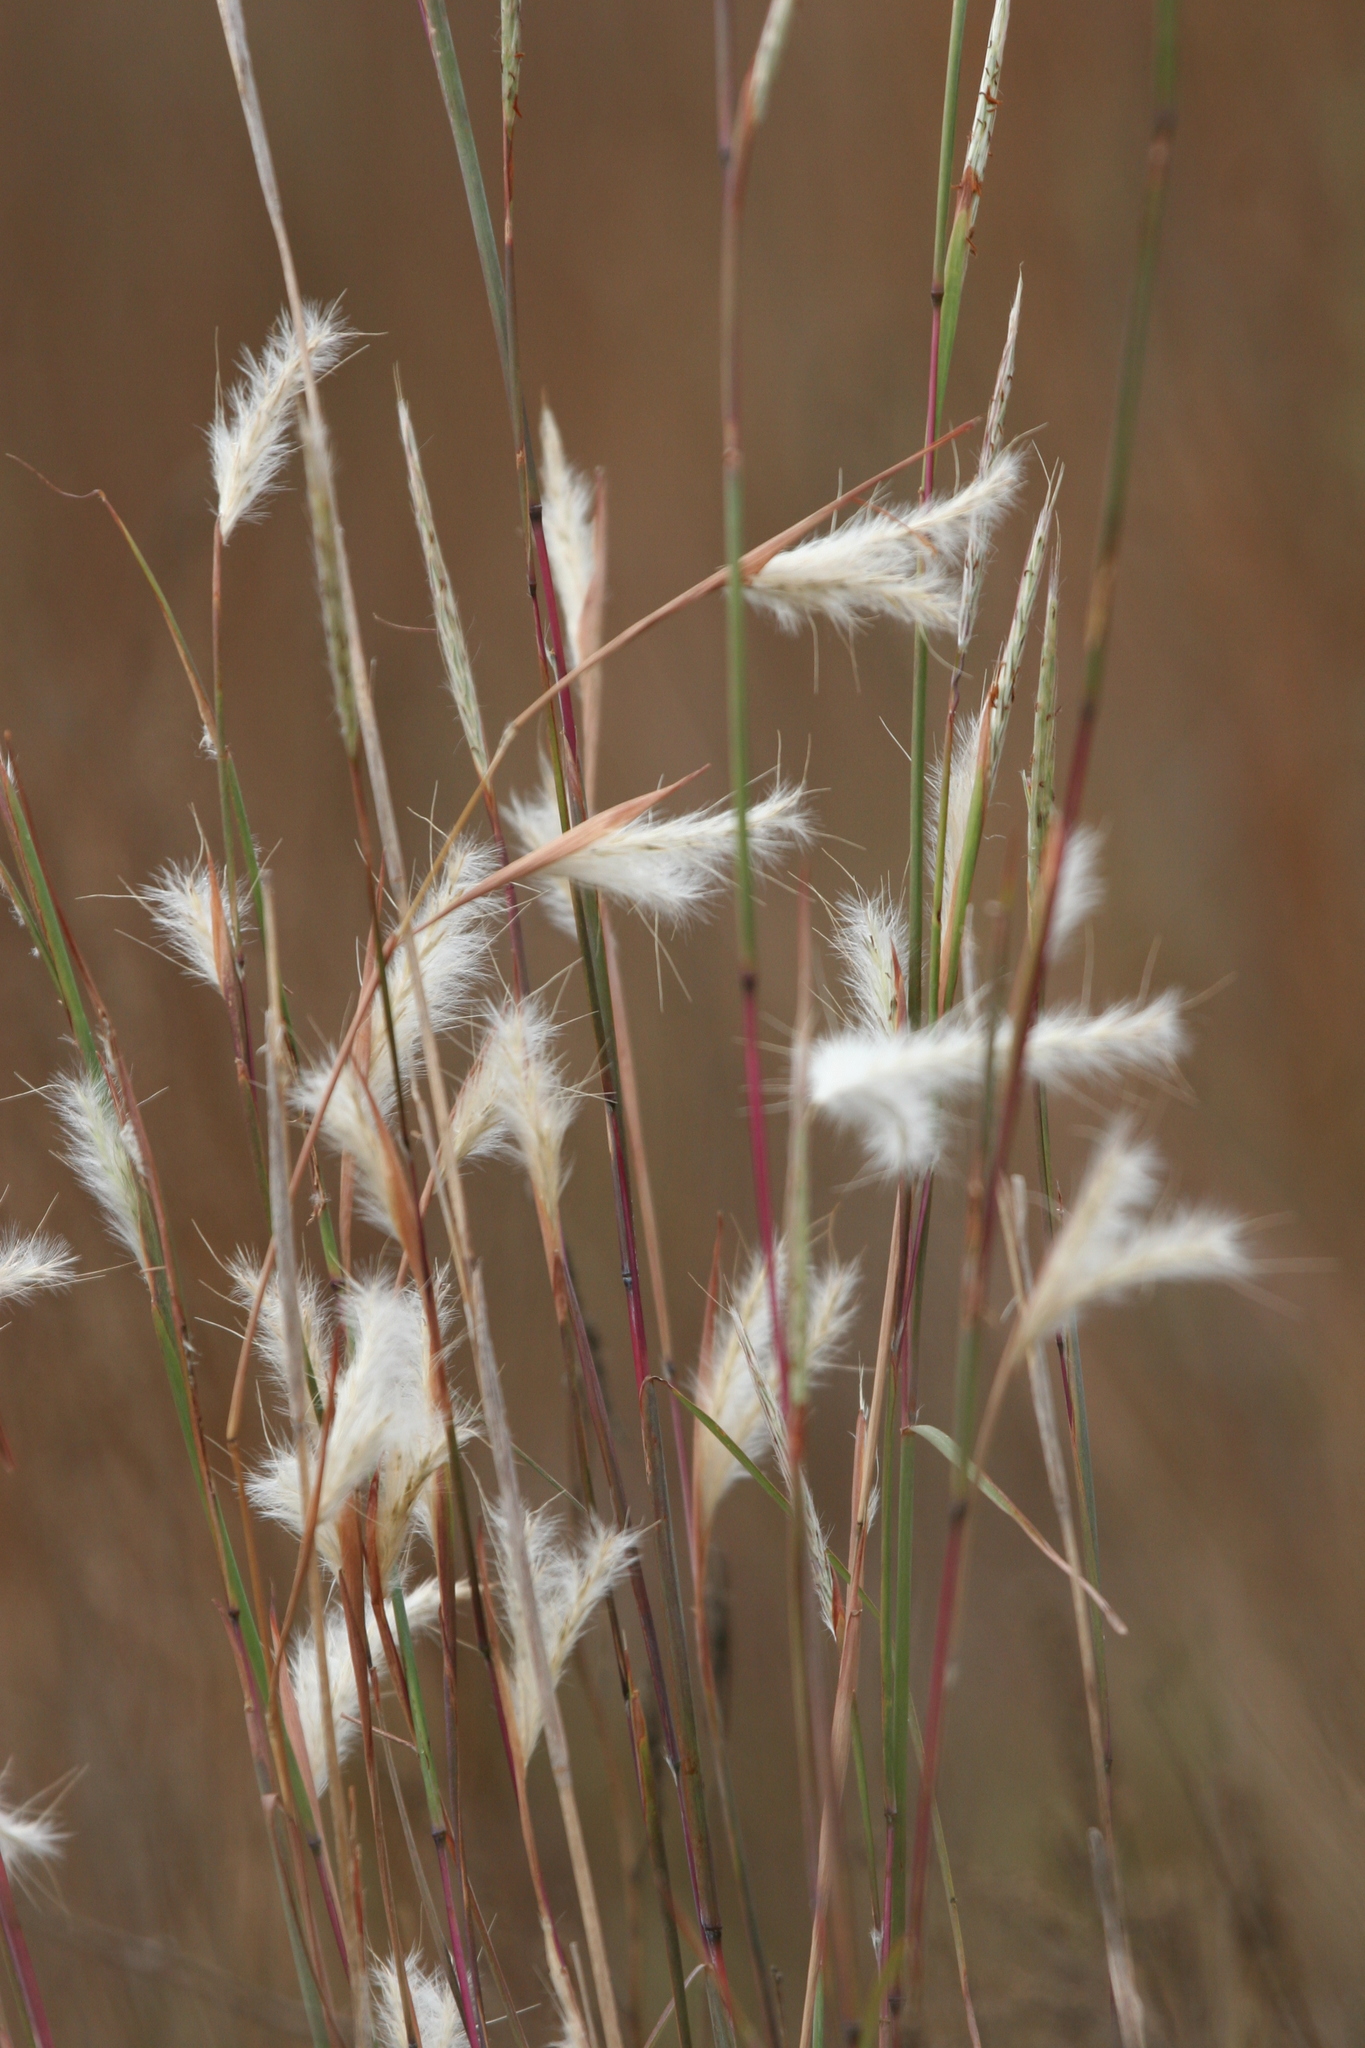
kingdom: Plantae
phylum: Tracheophyta
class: Liliopsida
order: Poales
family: Poaceae
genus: Andropogon
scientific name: Andropogon ternarius
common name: Split bluestem
